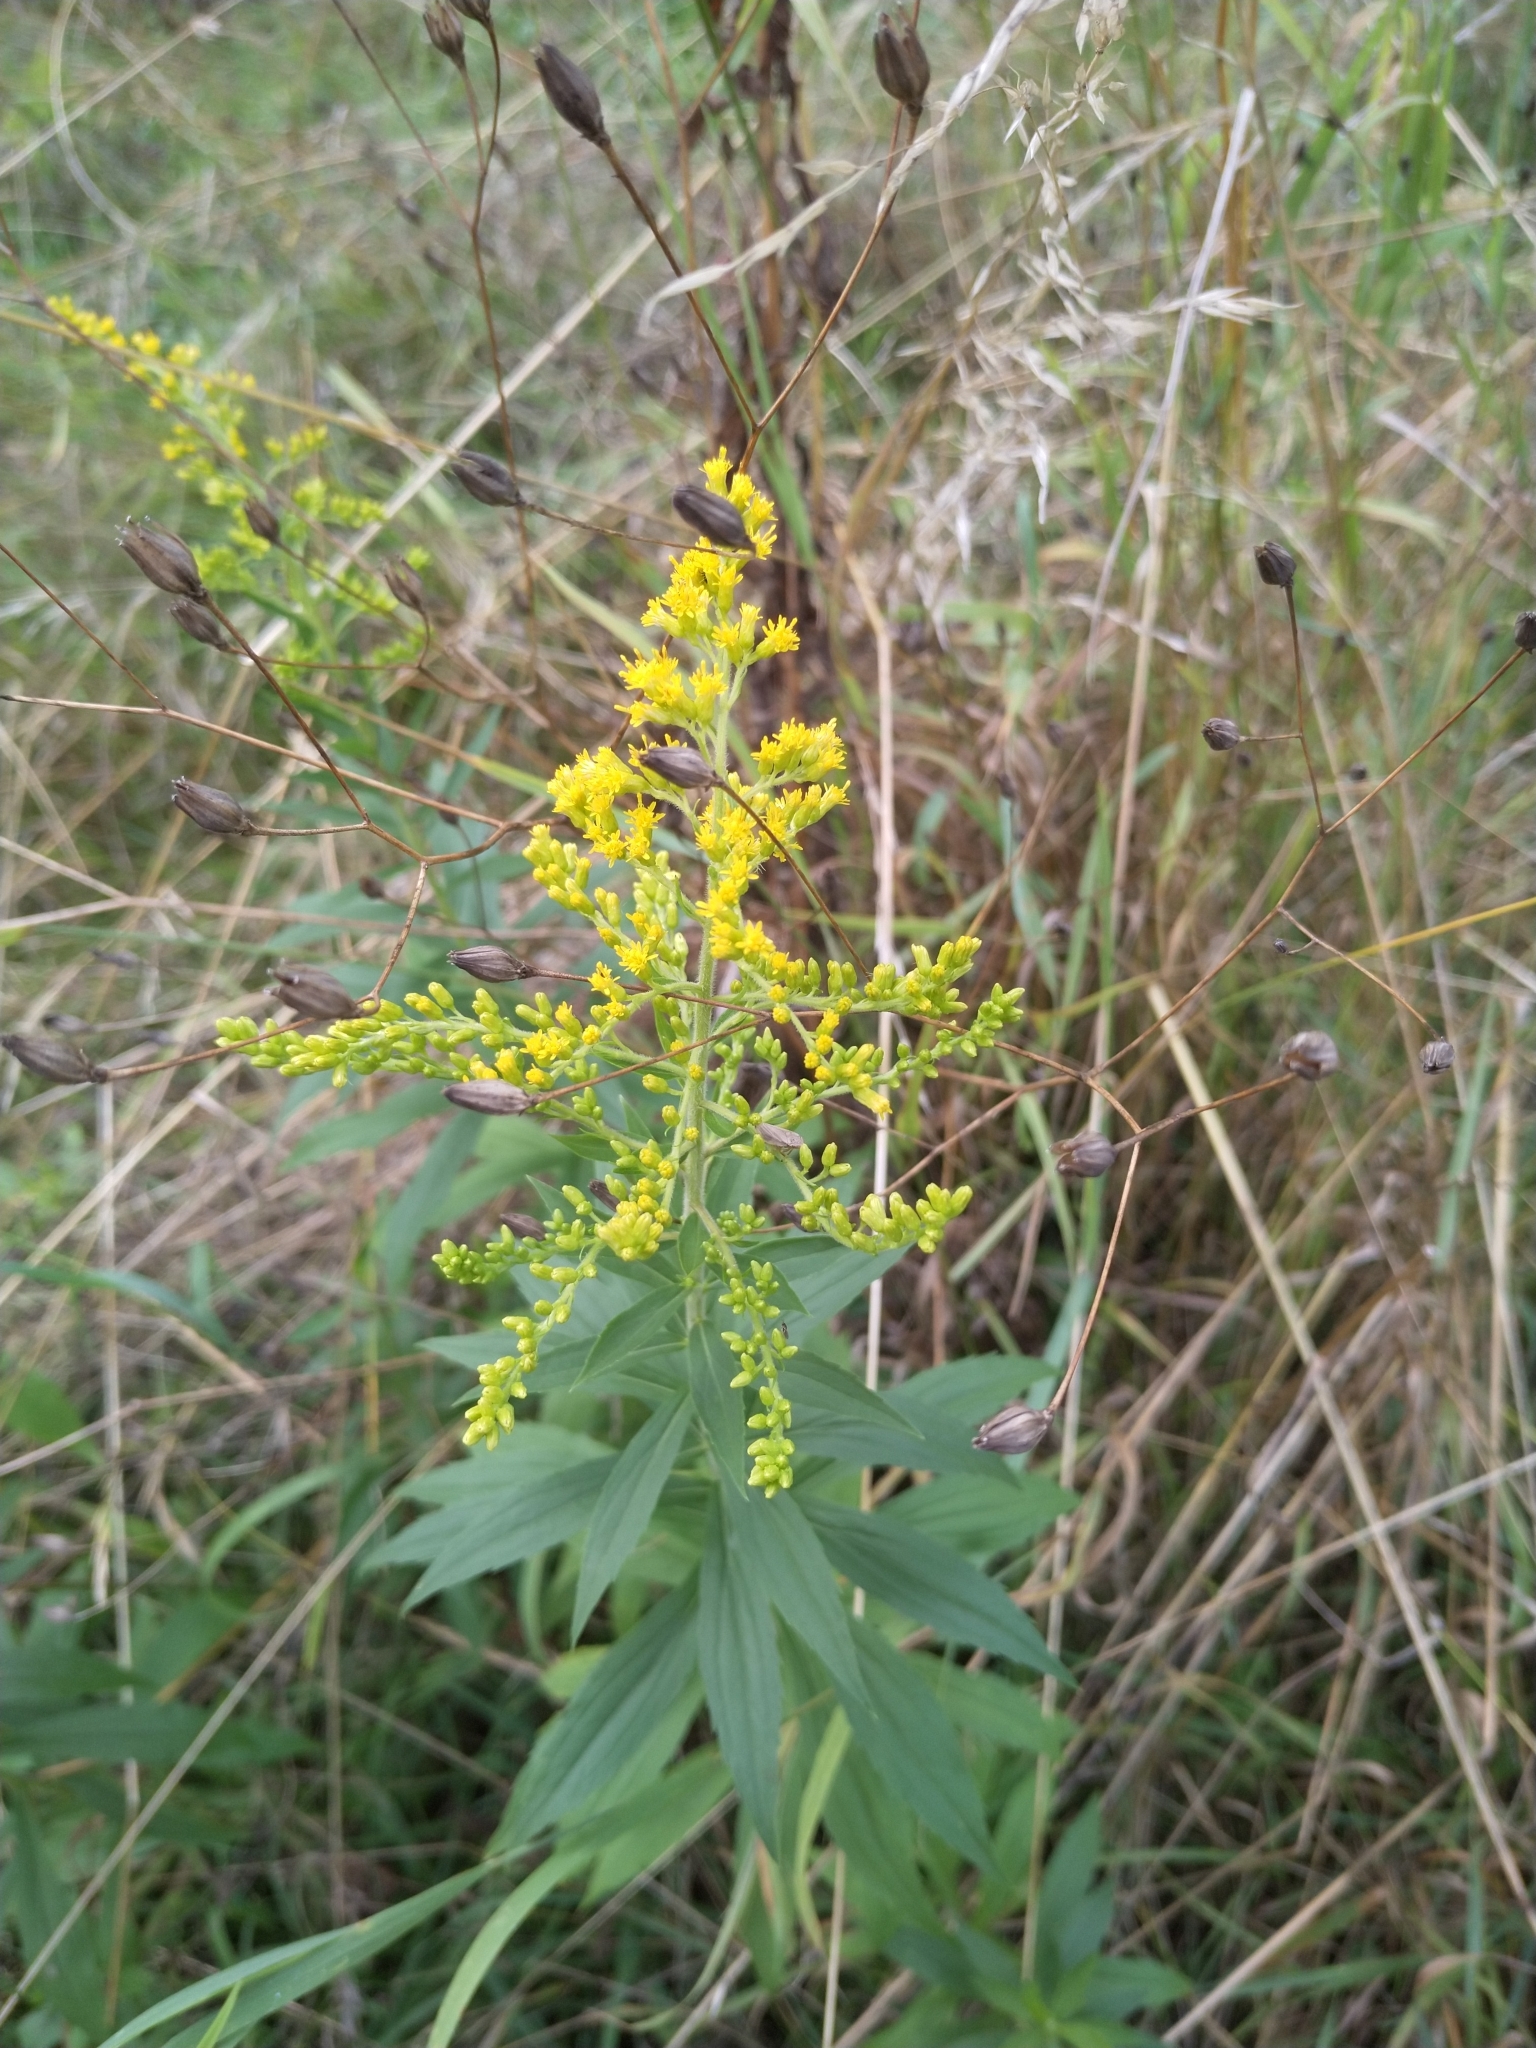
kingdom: Plantae
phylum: Tracheophyta
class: Magnoliopsida
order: Asterales
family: Asteraceae
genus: Solidago
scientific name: Solidago canadensis
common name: Canada goldenrod
